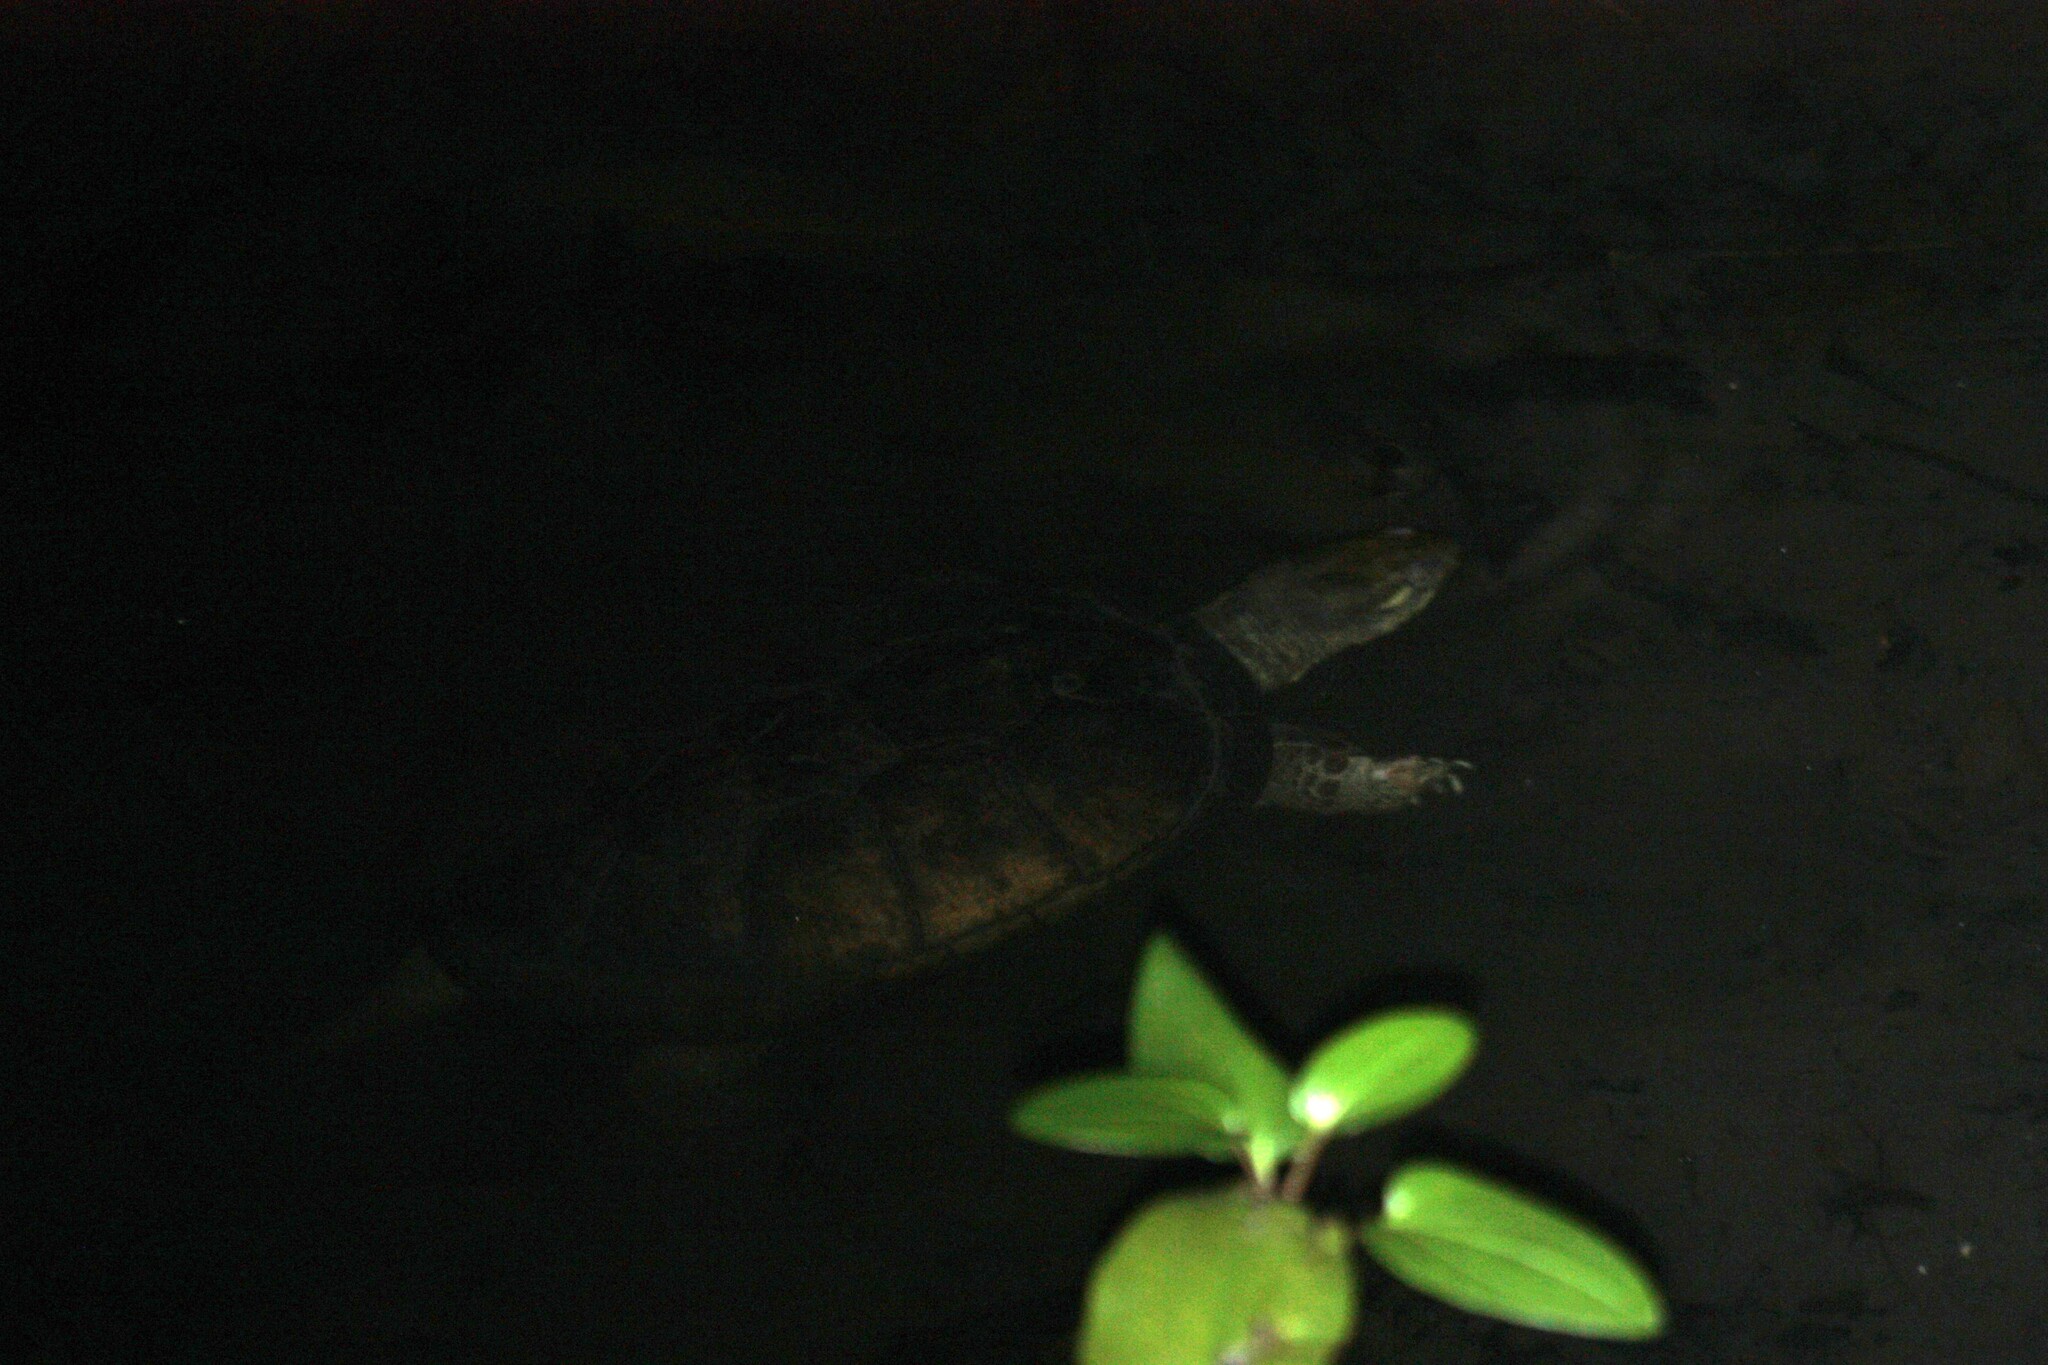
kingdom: Animalia
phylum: Chordata
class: Testudines
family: Geoemydidae
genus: Mauremys
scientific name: Mauremys mutica
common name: Yellow pond turtle
